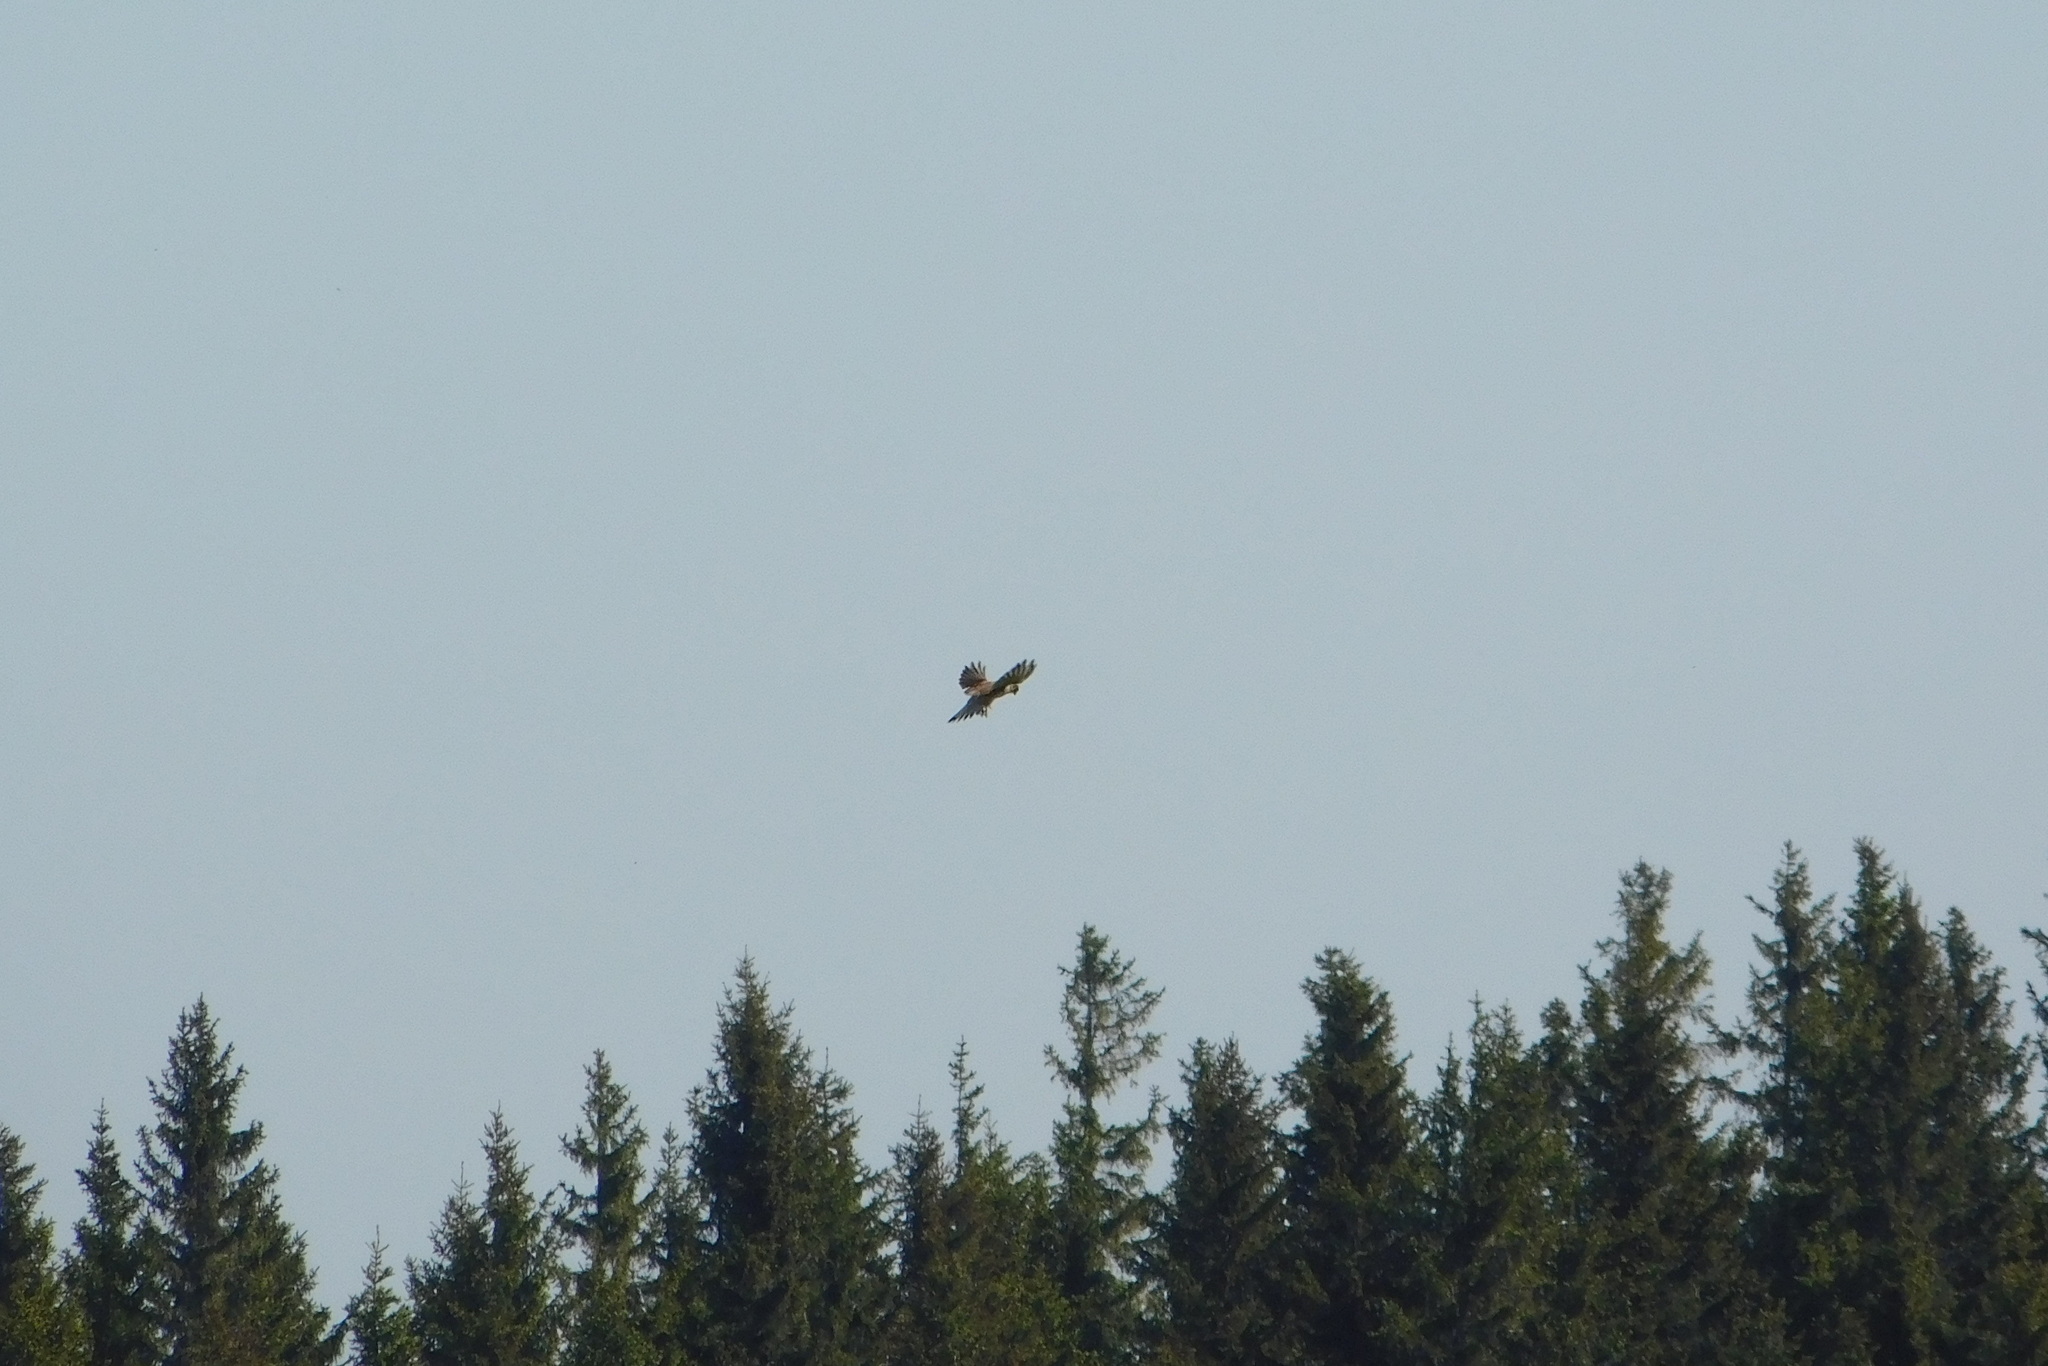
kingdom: Animalia
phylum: Chordata
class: Aves
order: Falconiformes
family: Falconidae
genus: Falco
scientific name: Falco tinnunculus
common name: Common kestrel
